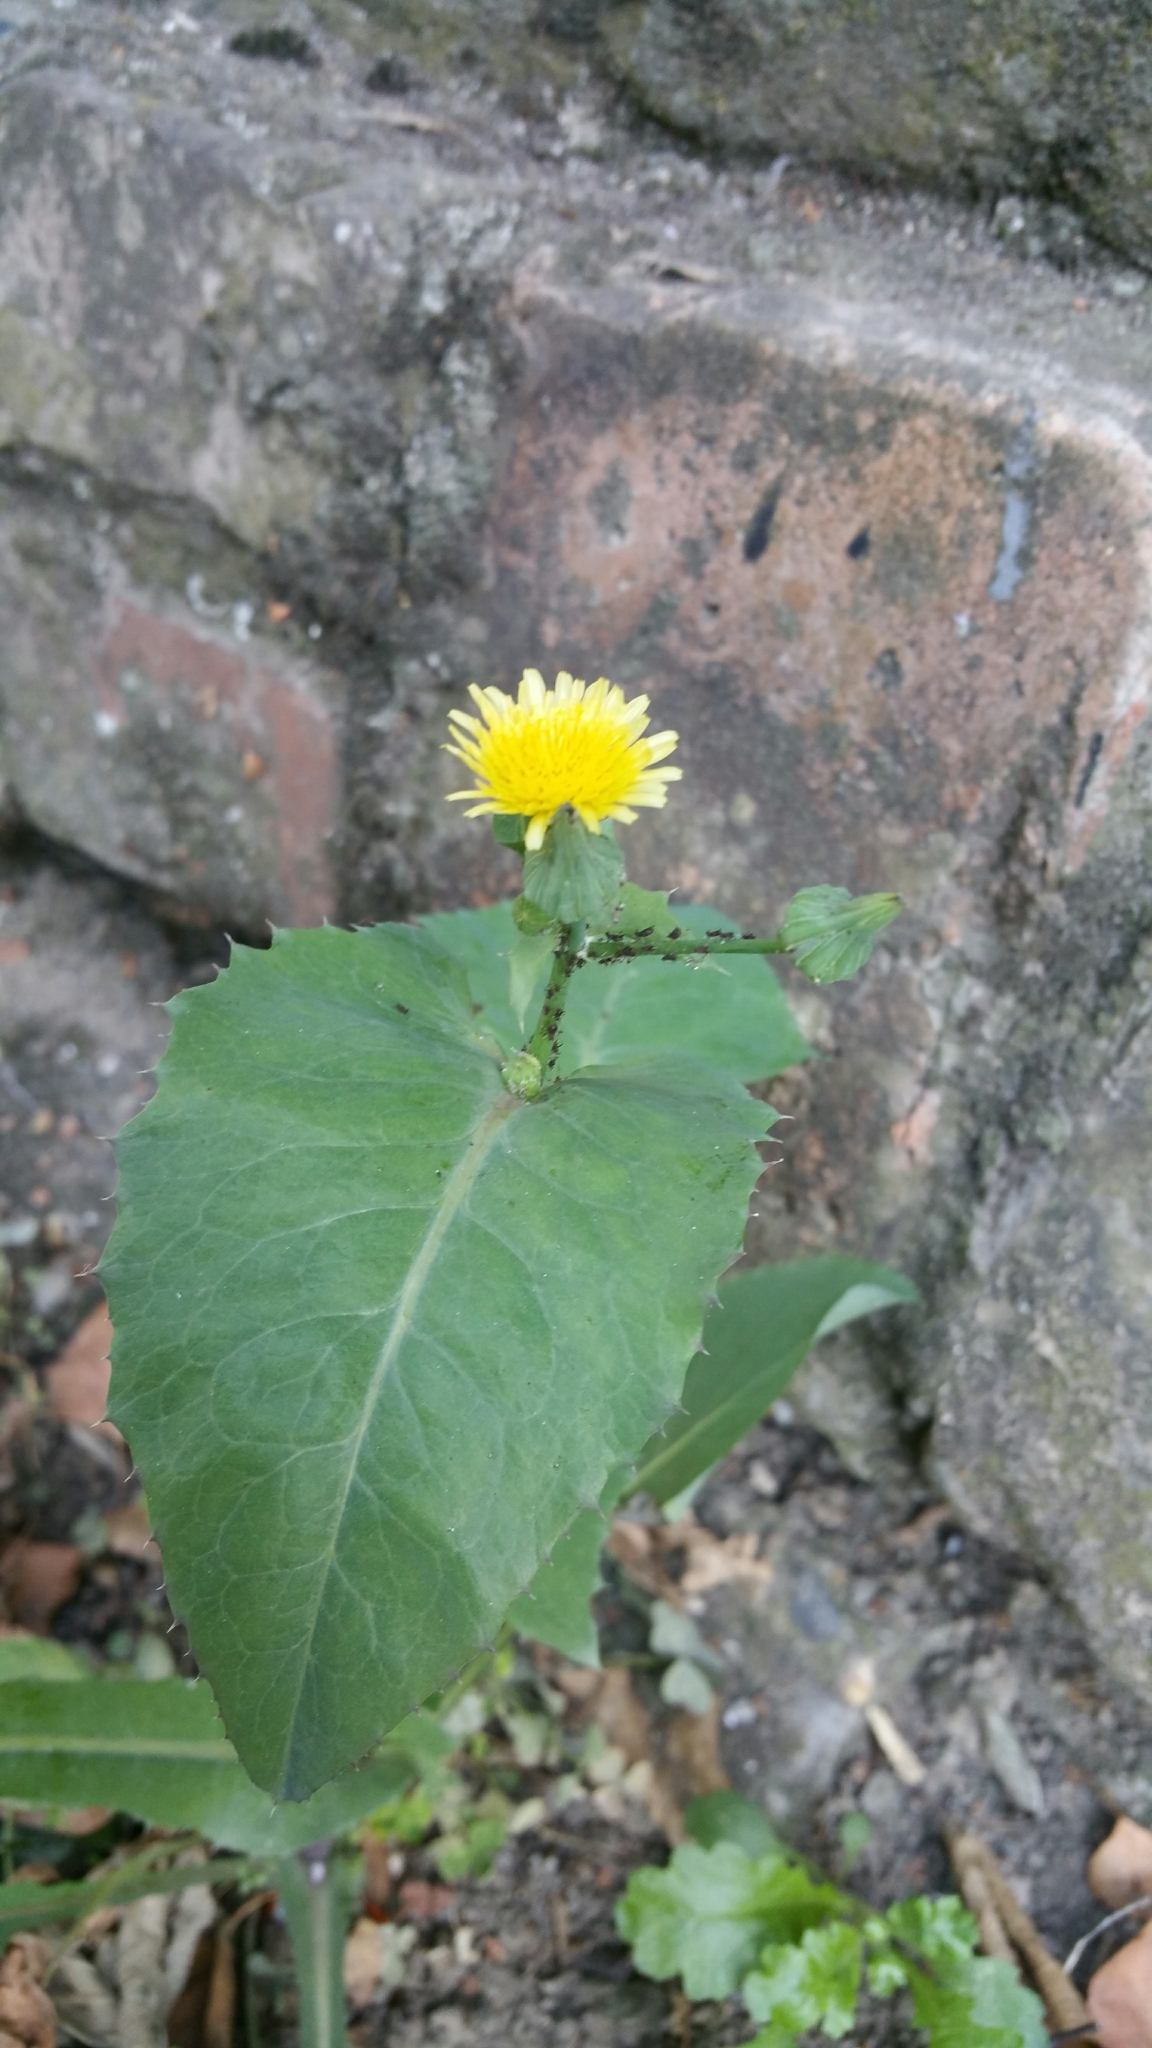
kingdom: Plantae
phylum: Tracheophyta
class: Magnoliopsida
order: Asterales
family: Asteraceae
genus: Sonchus
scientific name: Sonchus oleraceus
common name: Common sowthistle
